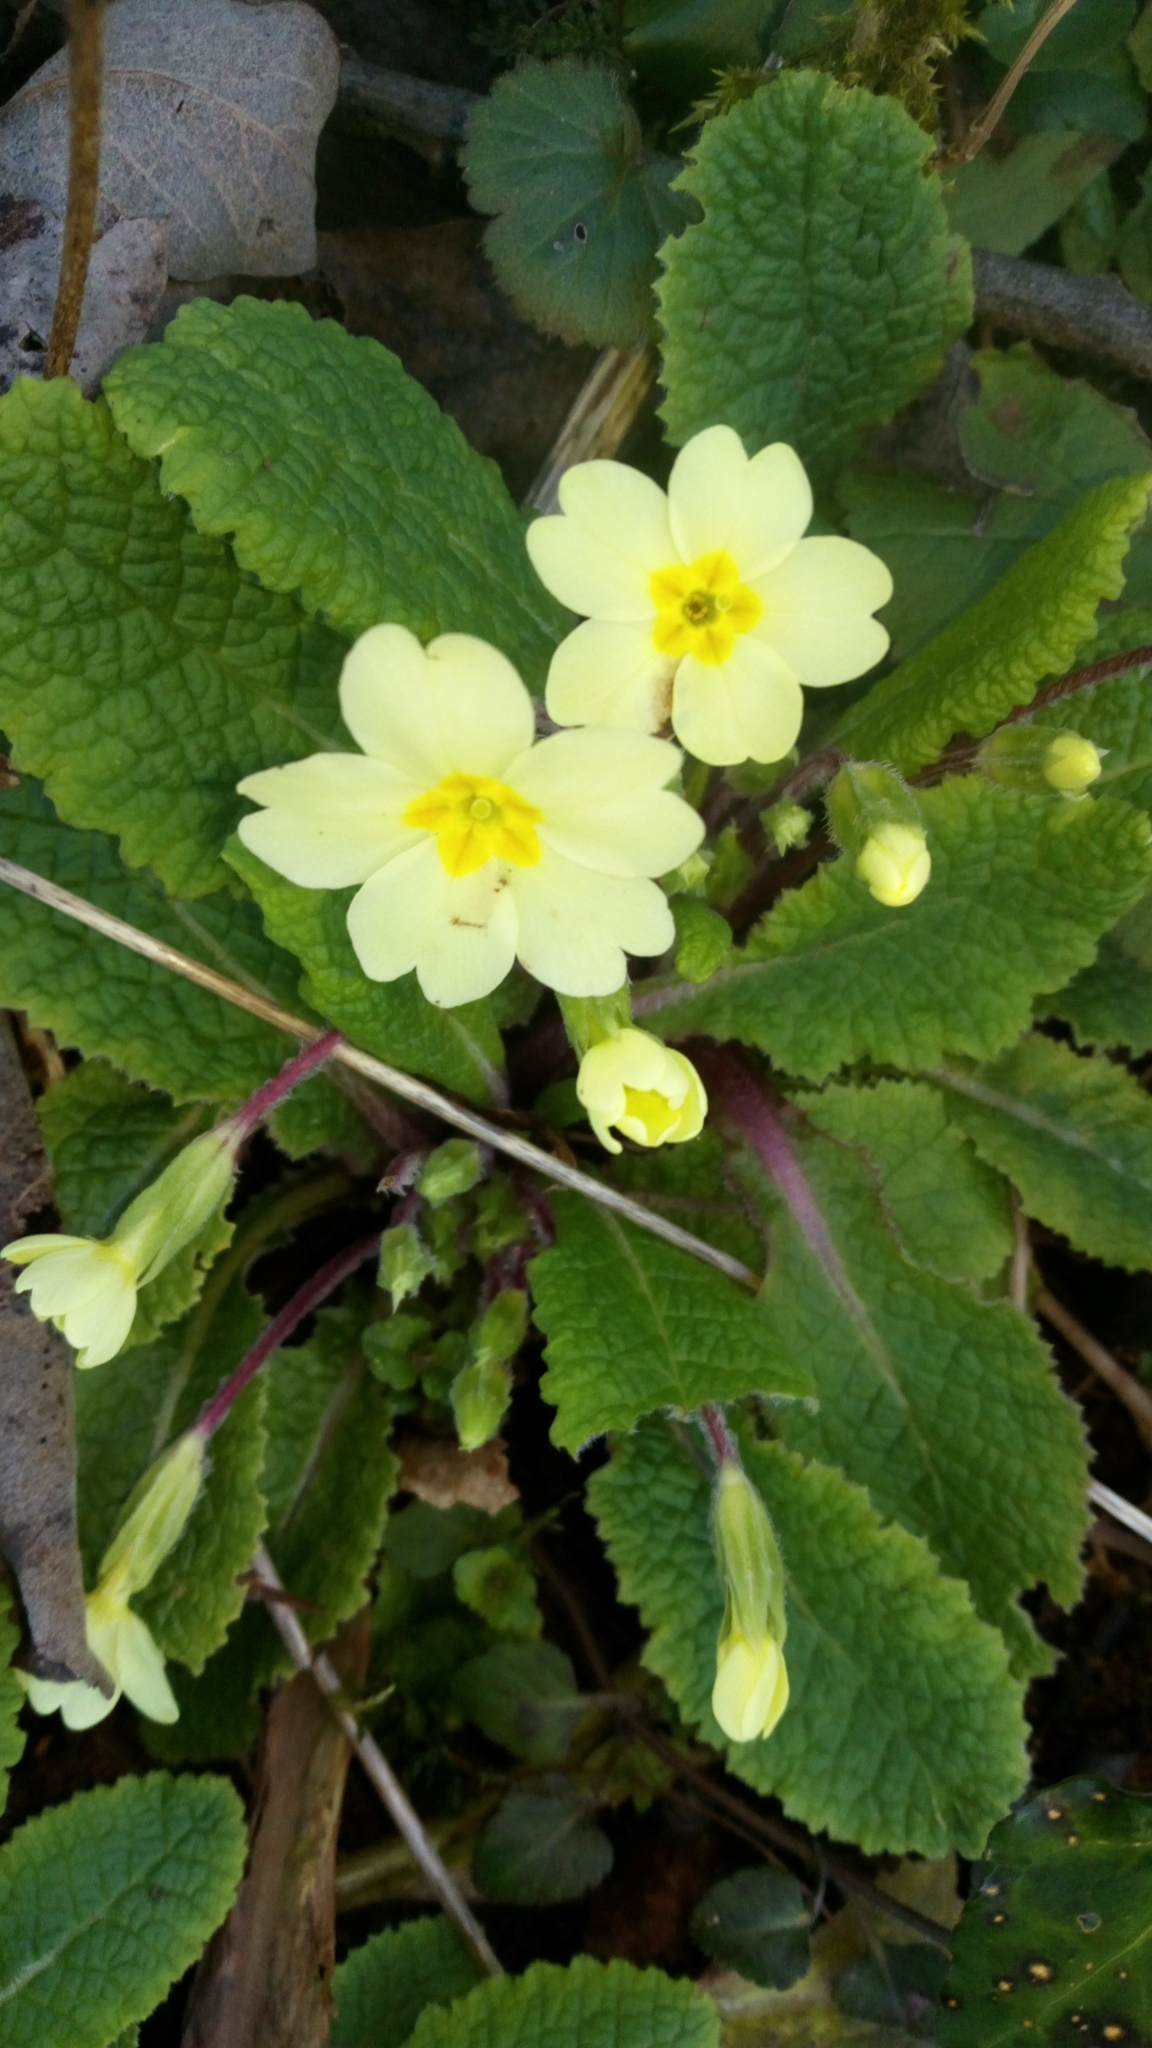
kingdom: Plantae
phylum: Tracheophyta
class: Magnoliopsida
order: Ericales
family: Primulaceae
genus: Primula
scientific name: Primula vulgaris
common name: Primrose
